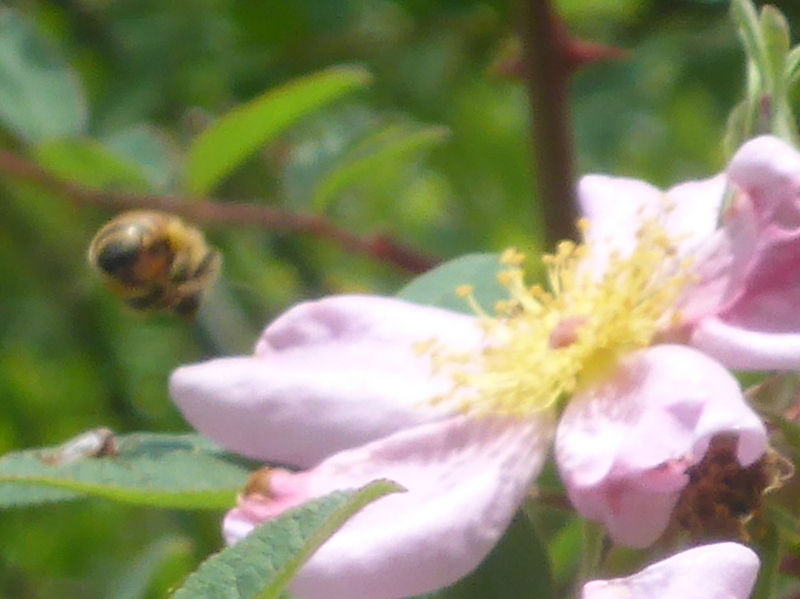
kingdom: Animalia
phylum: Arthropoda
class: Insecta
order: Hymenoptera
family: Apidae
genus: Apis
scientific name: Apis mellifera
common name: Honey bee
